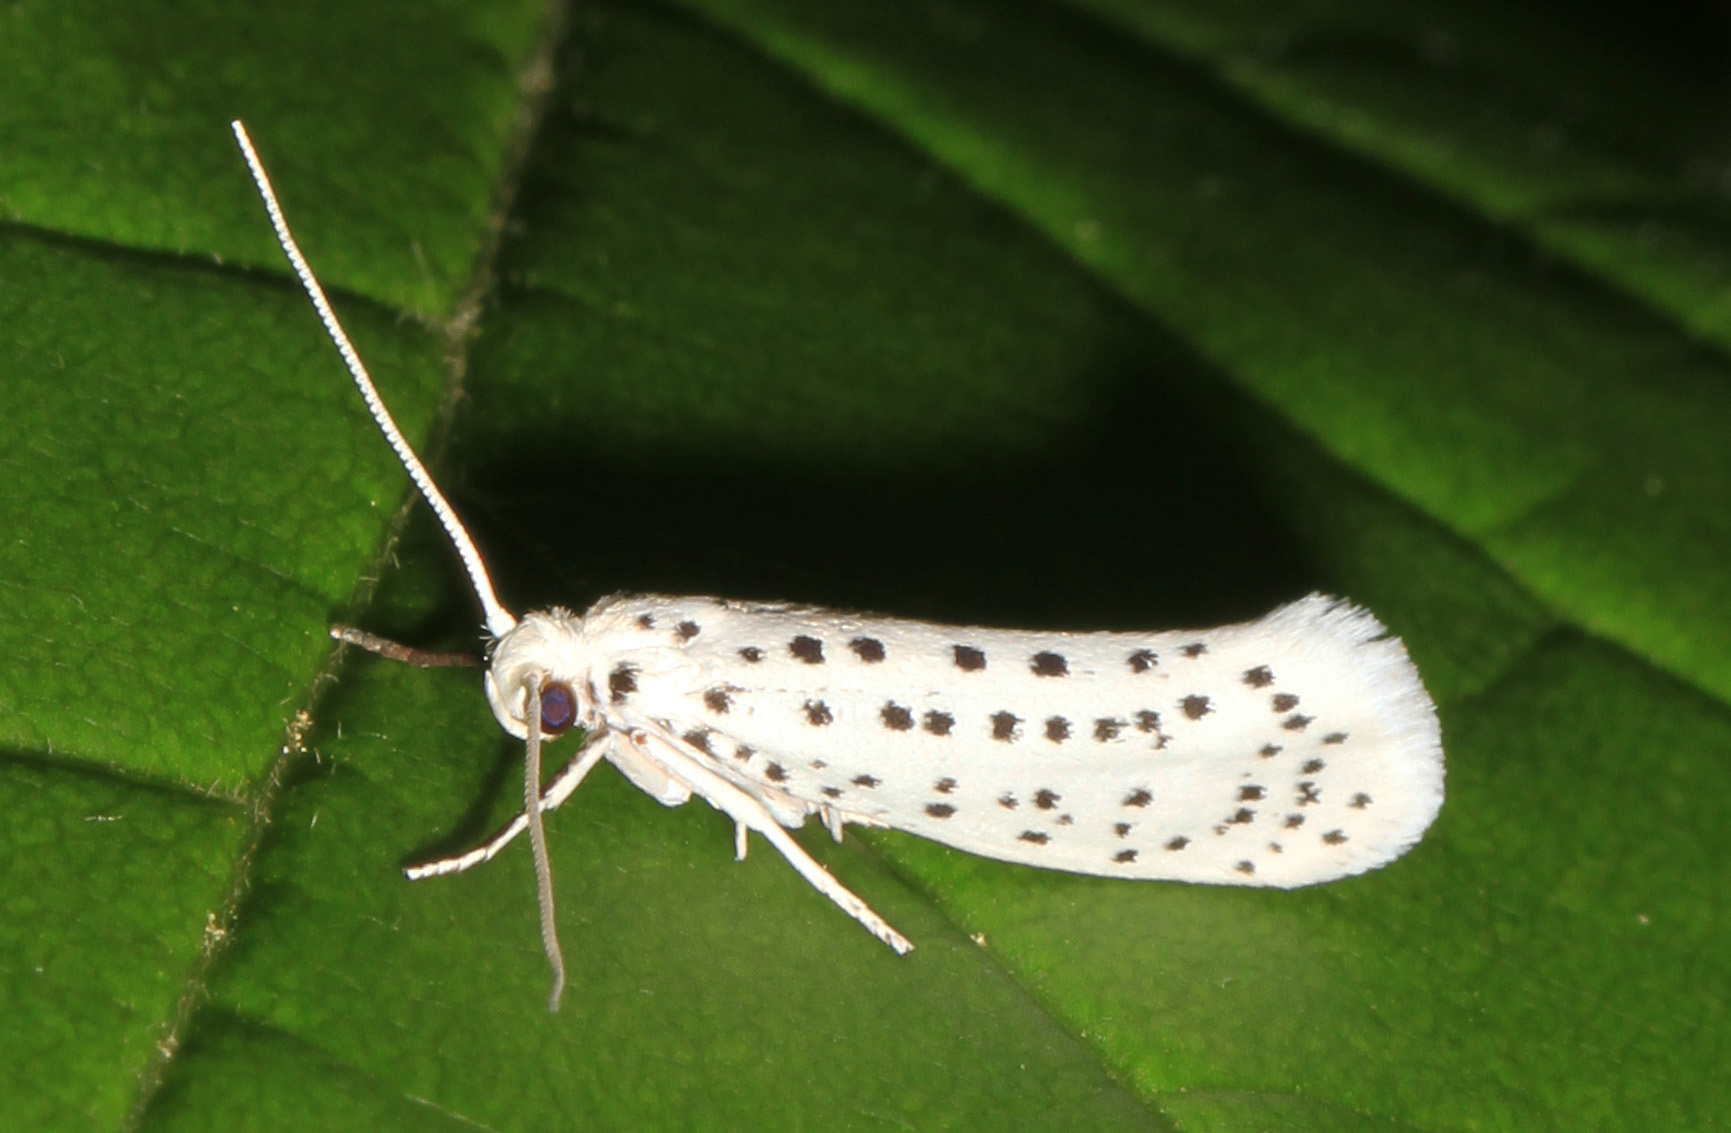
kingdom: Animalia
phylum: Arthropoda
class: Insecta
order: Lepidoptera
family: Yponomeutidae
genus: Yponomeuta
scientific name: Yponomeuta multipunctella
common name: American ermine moth
